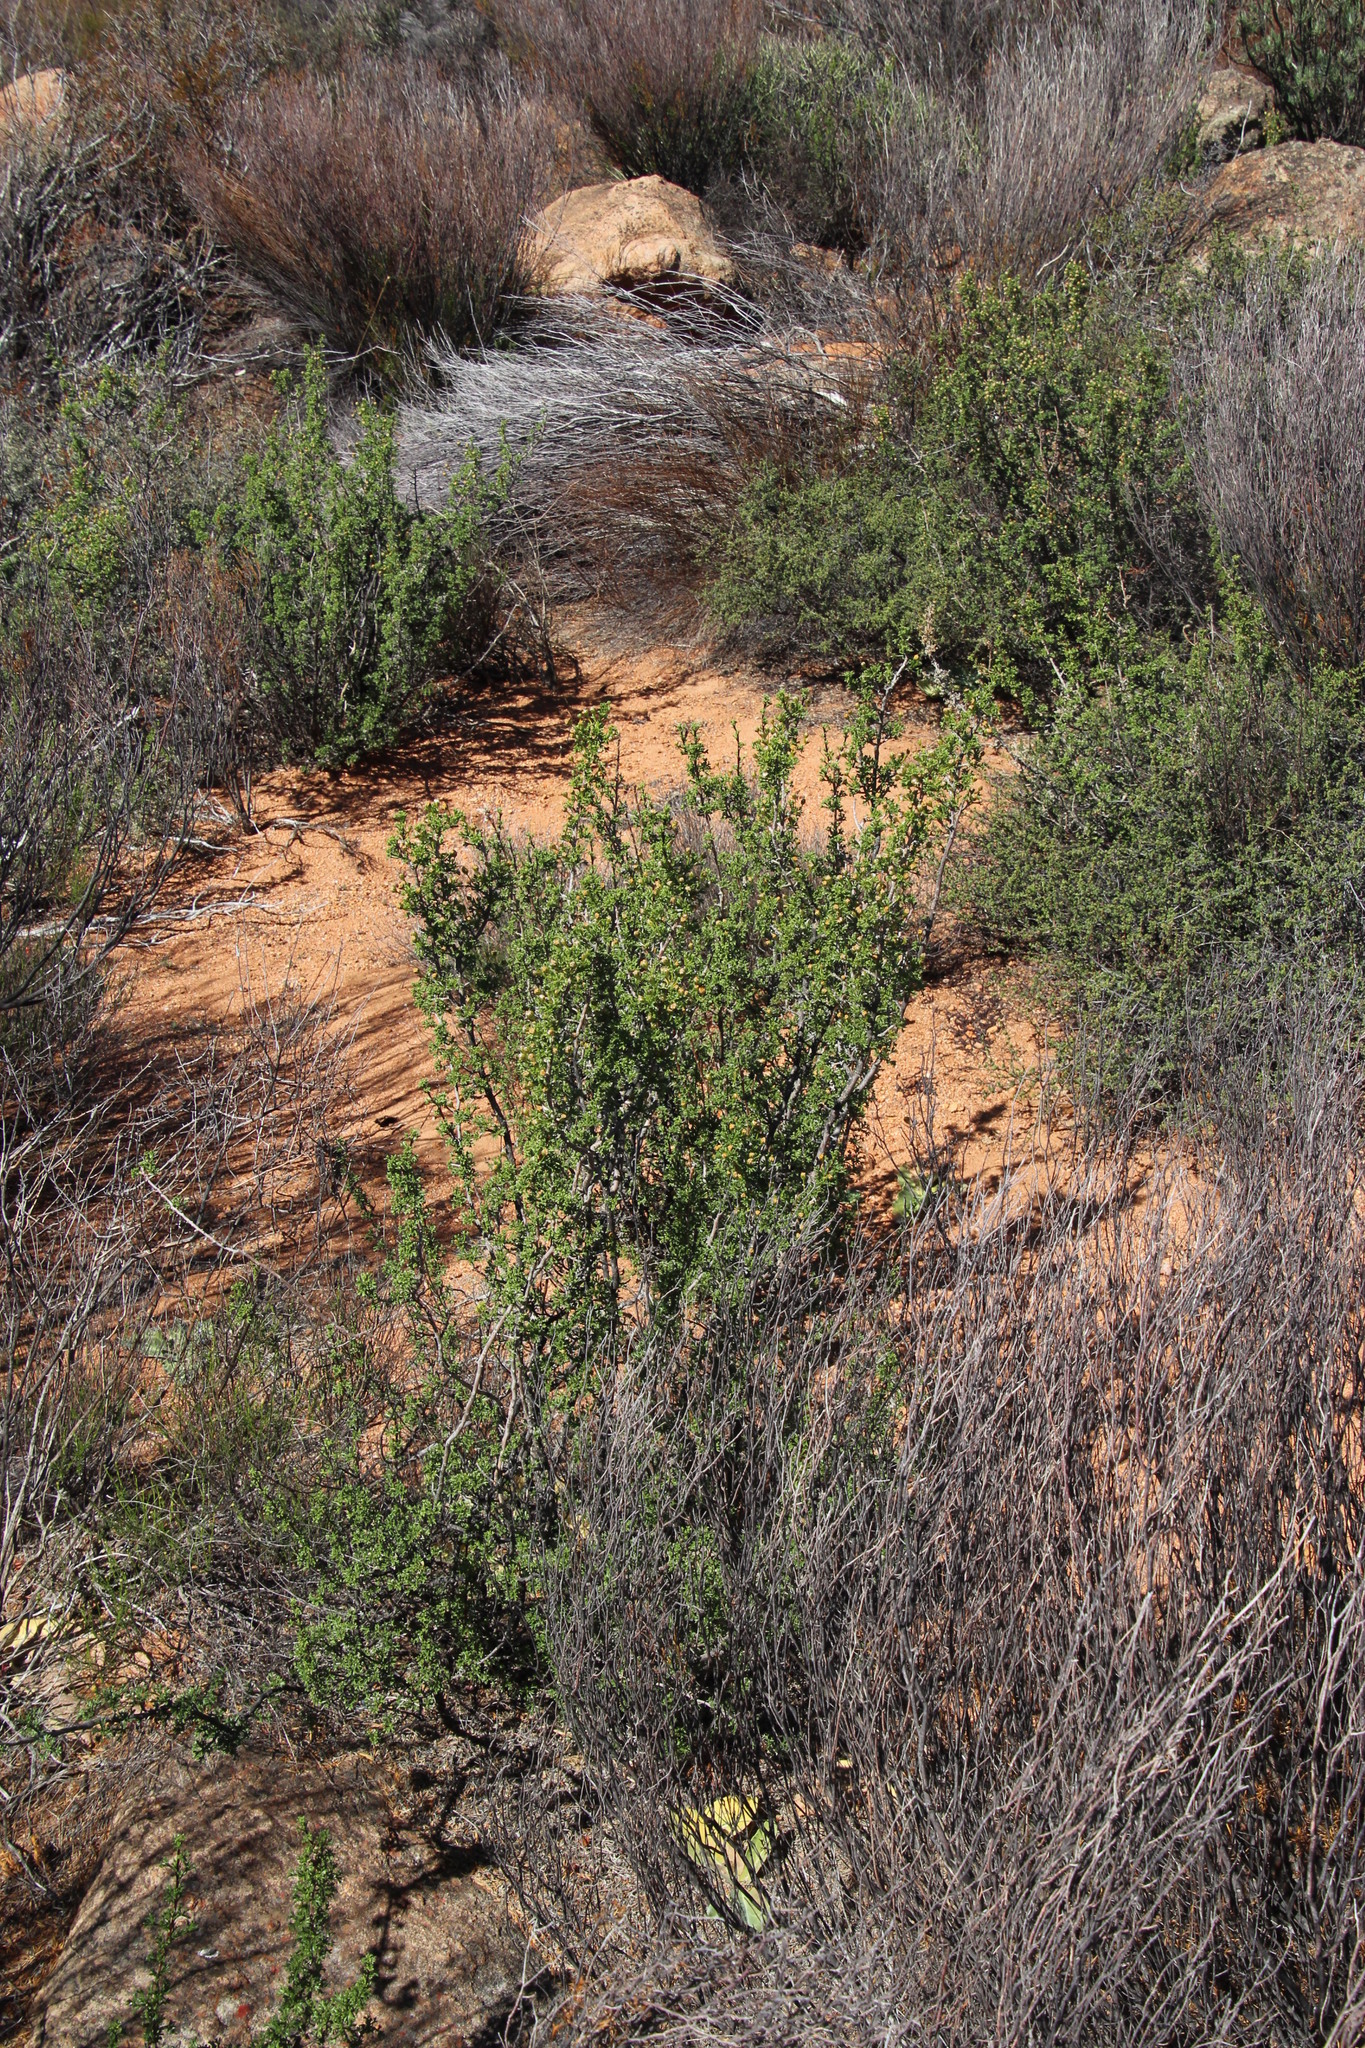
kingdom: Plantae
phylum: Tracheophyta
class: Magnoliopsida
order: Asterales
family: Asteraceae
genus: Euryops
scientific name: Euryops multifidus
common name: Hawk's eye
